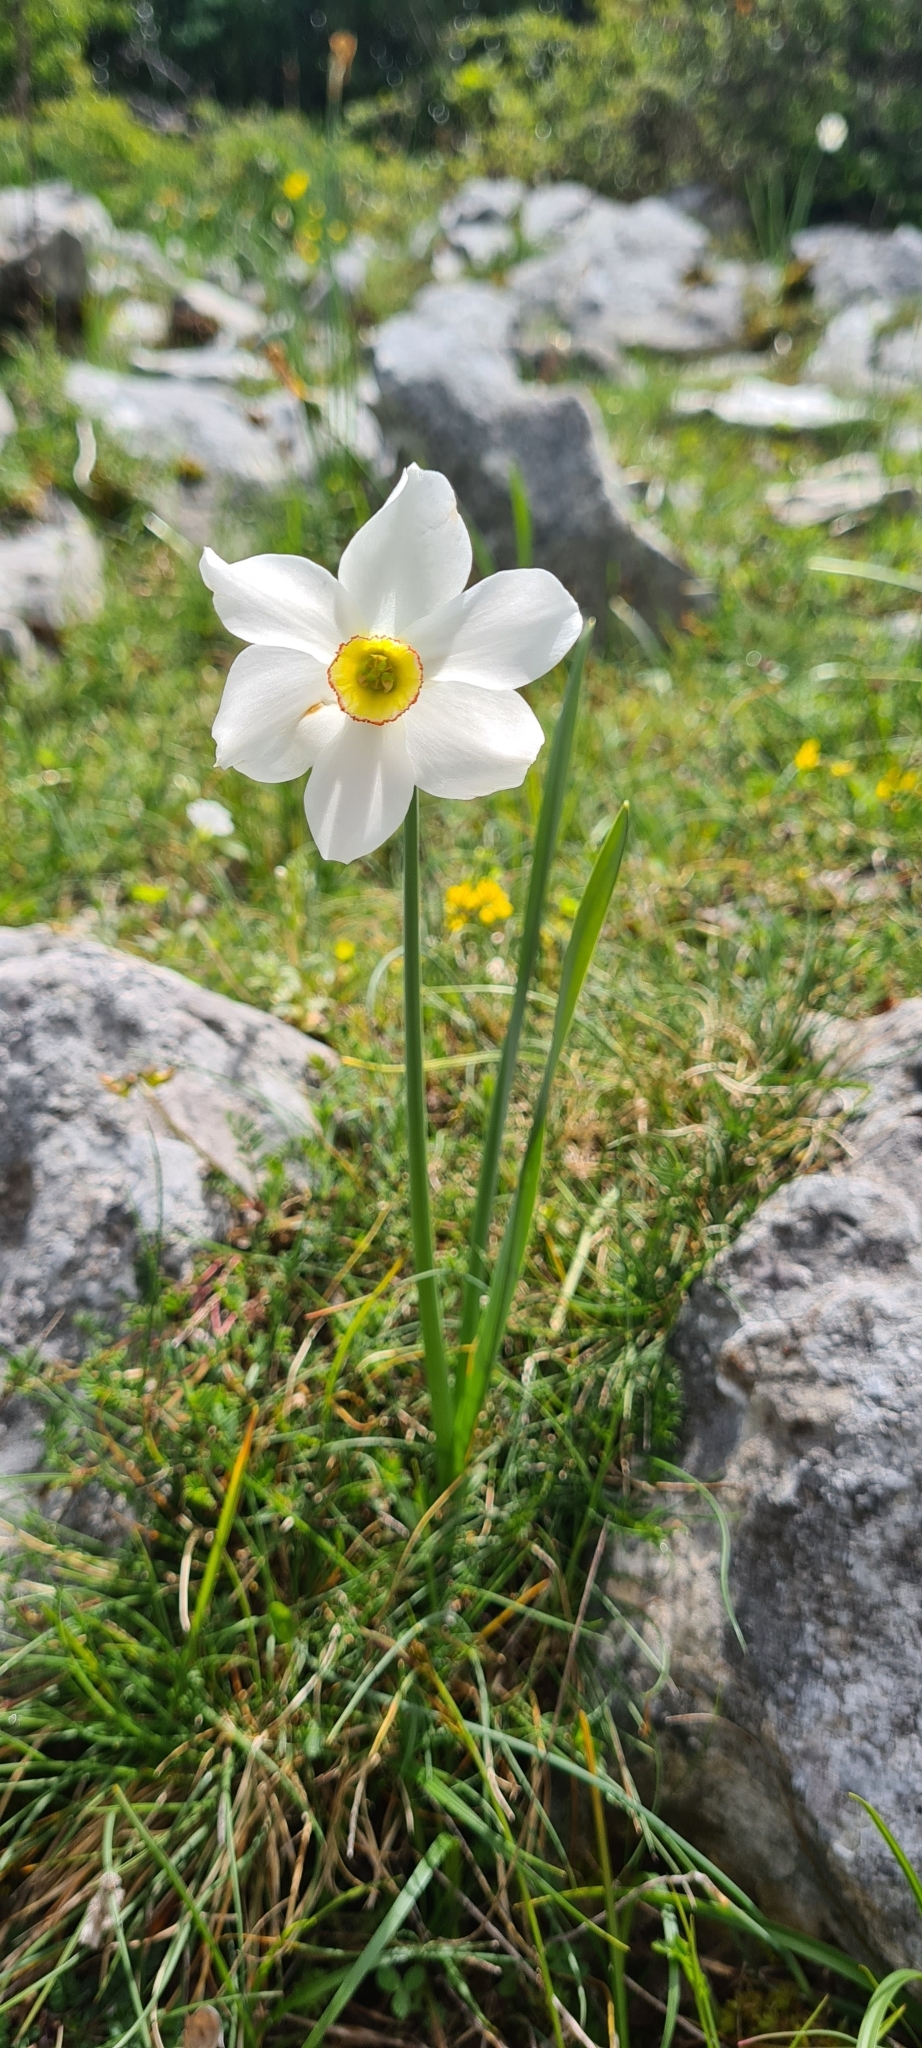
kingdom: Plantae
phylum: Tracheophyta
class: Liliopsida
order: Asparagales
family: Amaryllidaceae
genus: Narcissus
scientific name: Narcissus poeticus
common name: Pheasant's-eye daffodil
